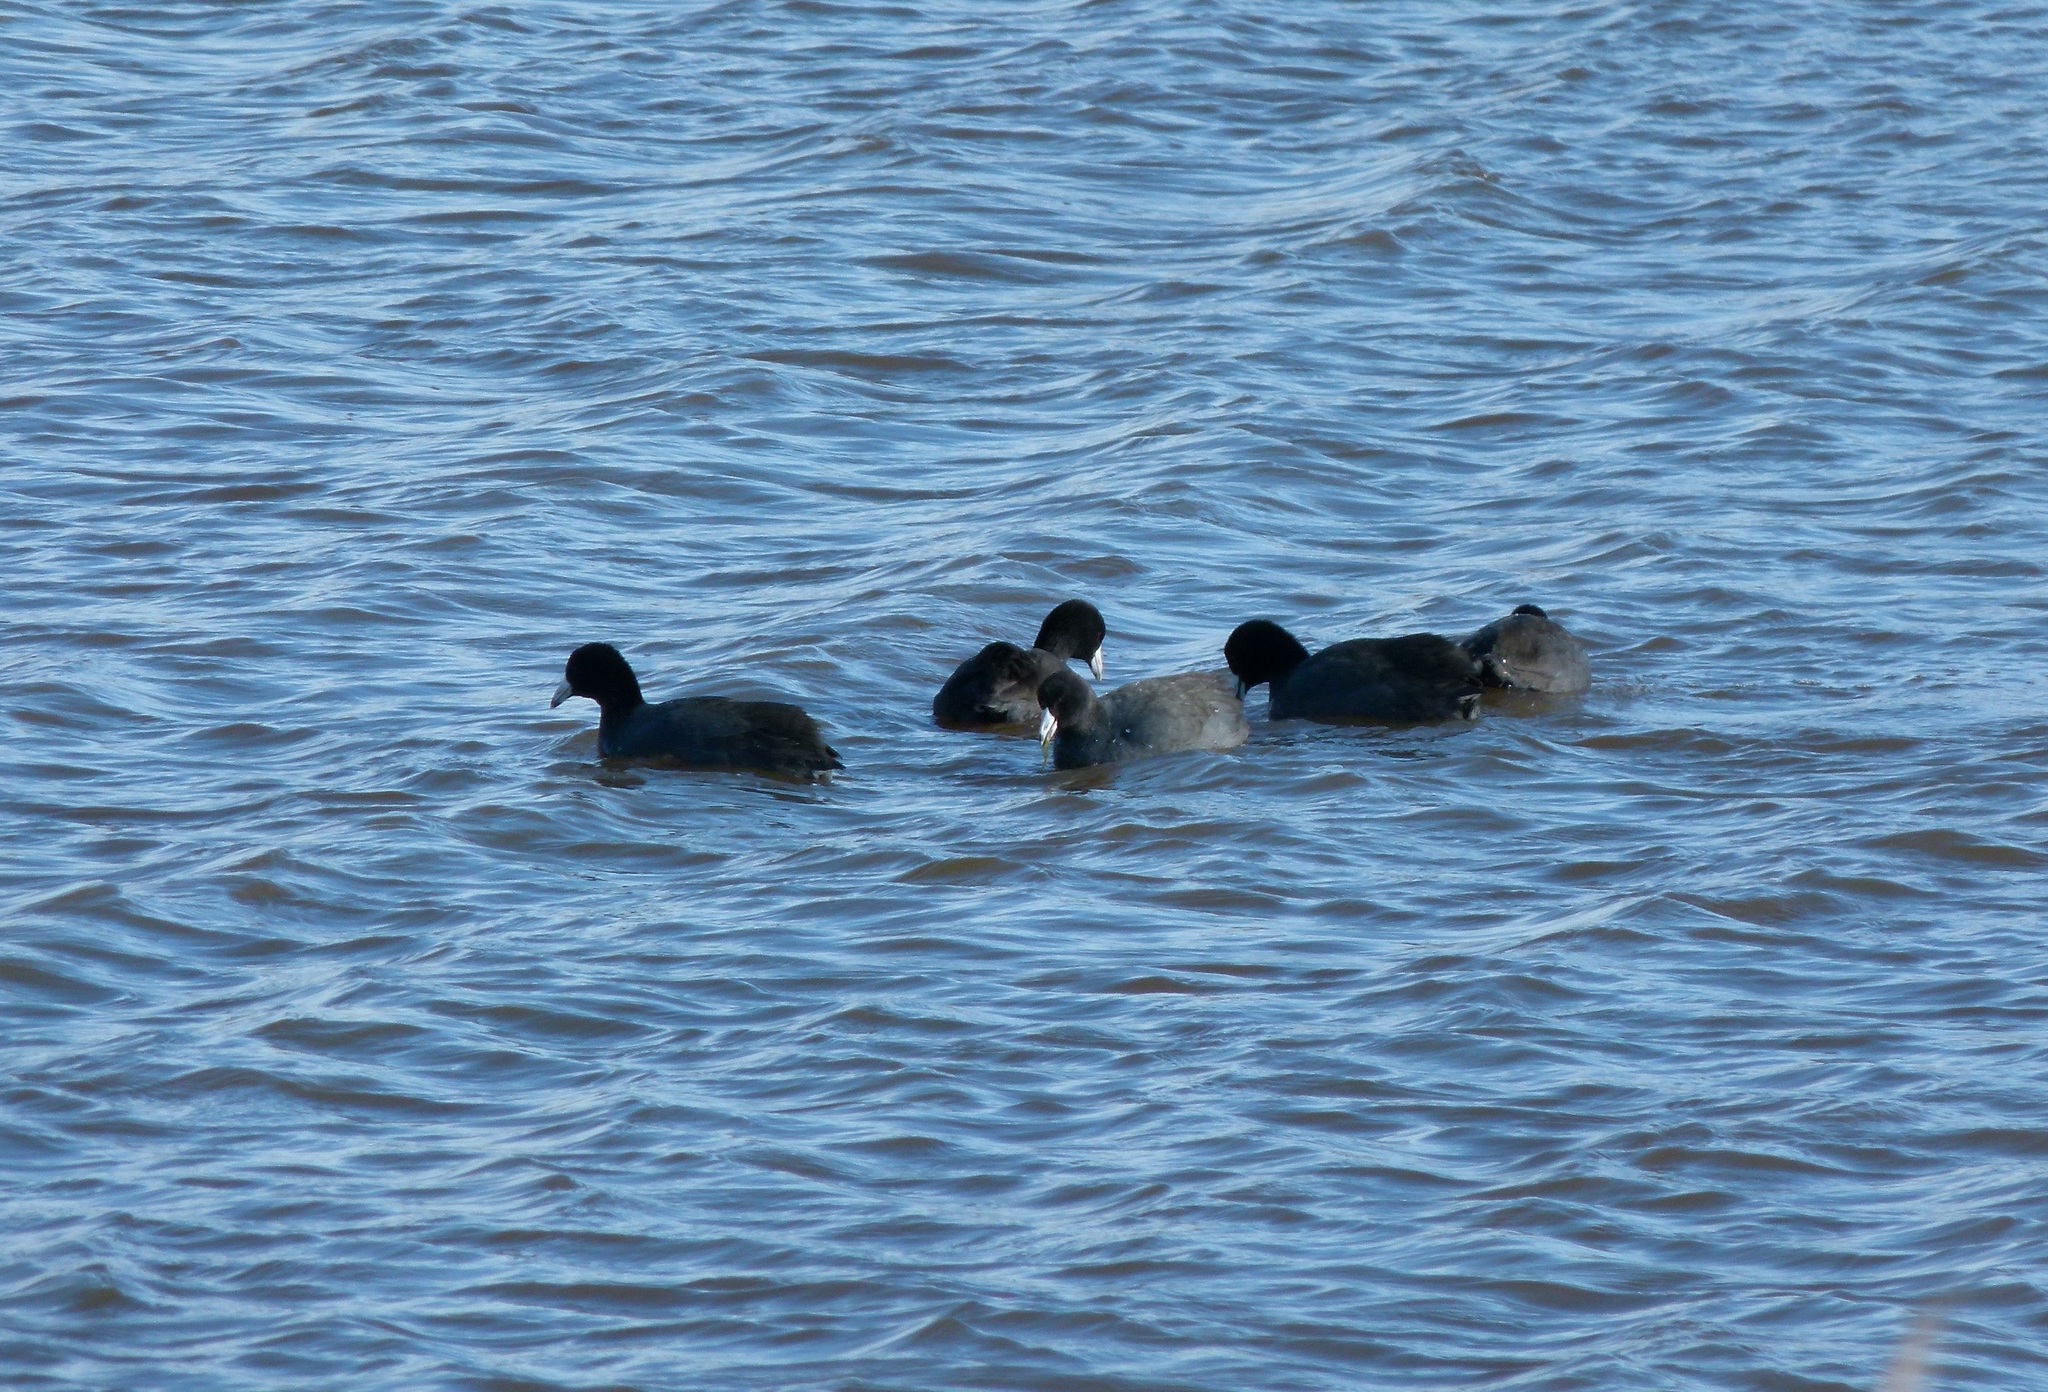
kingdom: Animalia
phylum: Chordata
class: Aves
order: Gruiformes
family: Rallidae
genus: Fulica
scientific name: Fulica americana
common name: American coot
